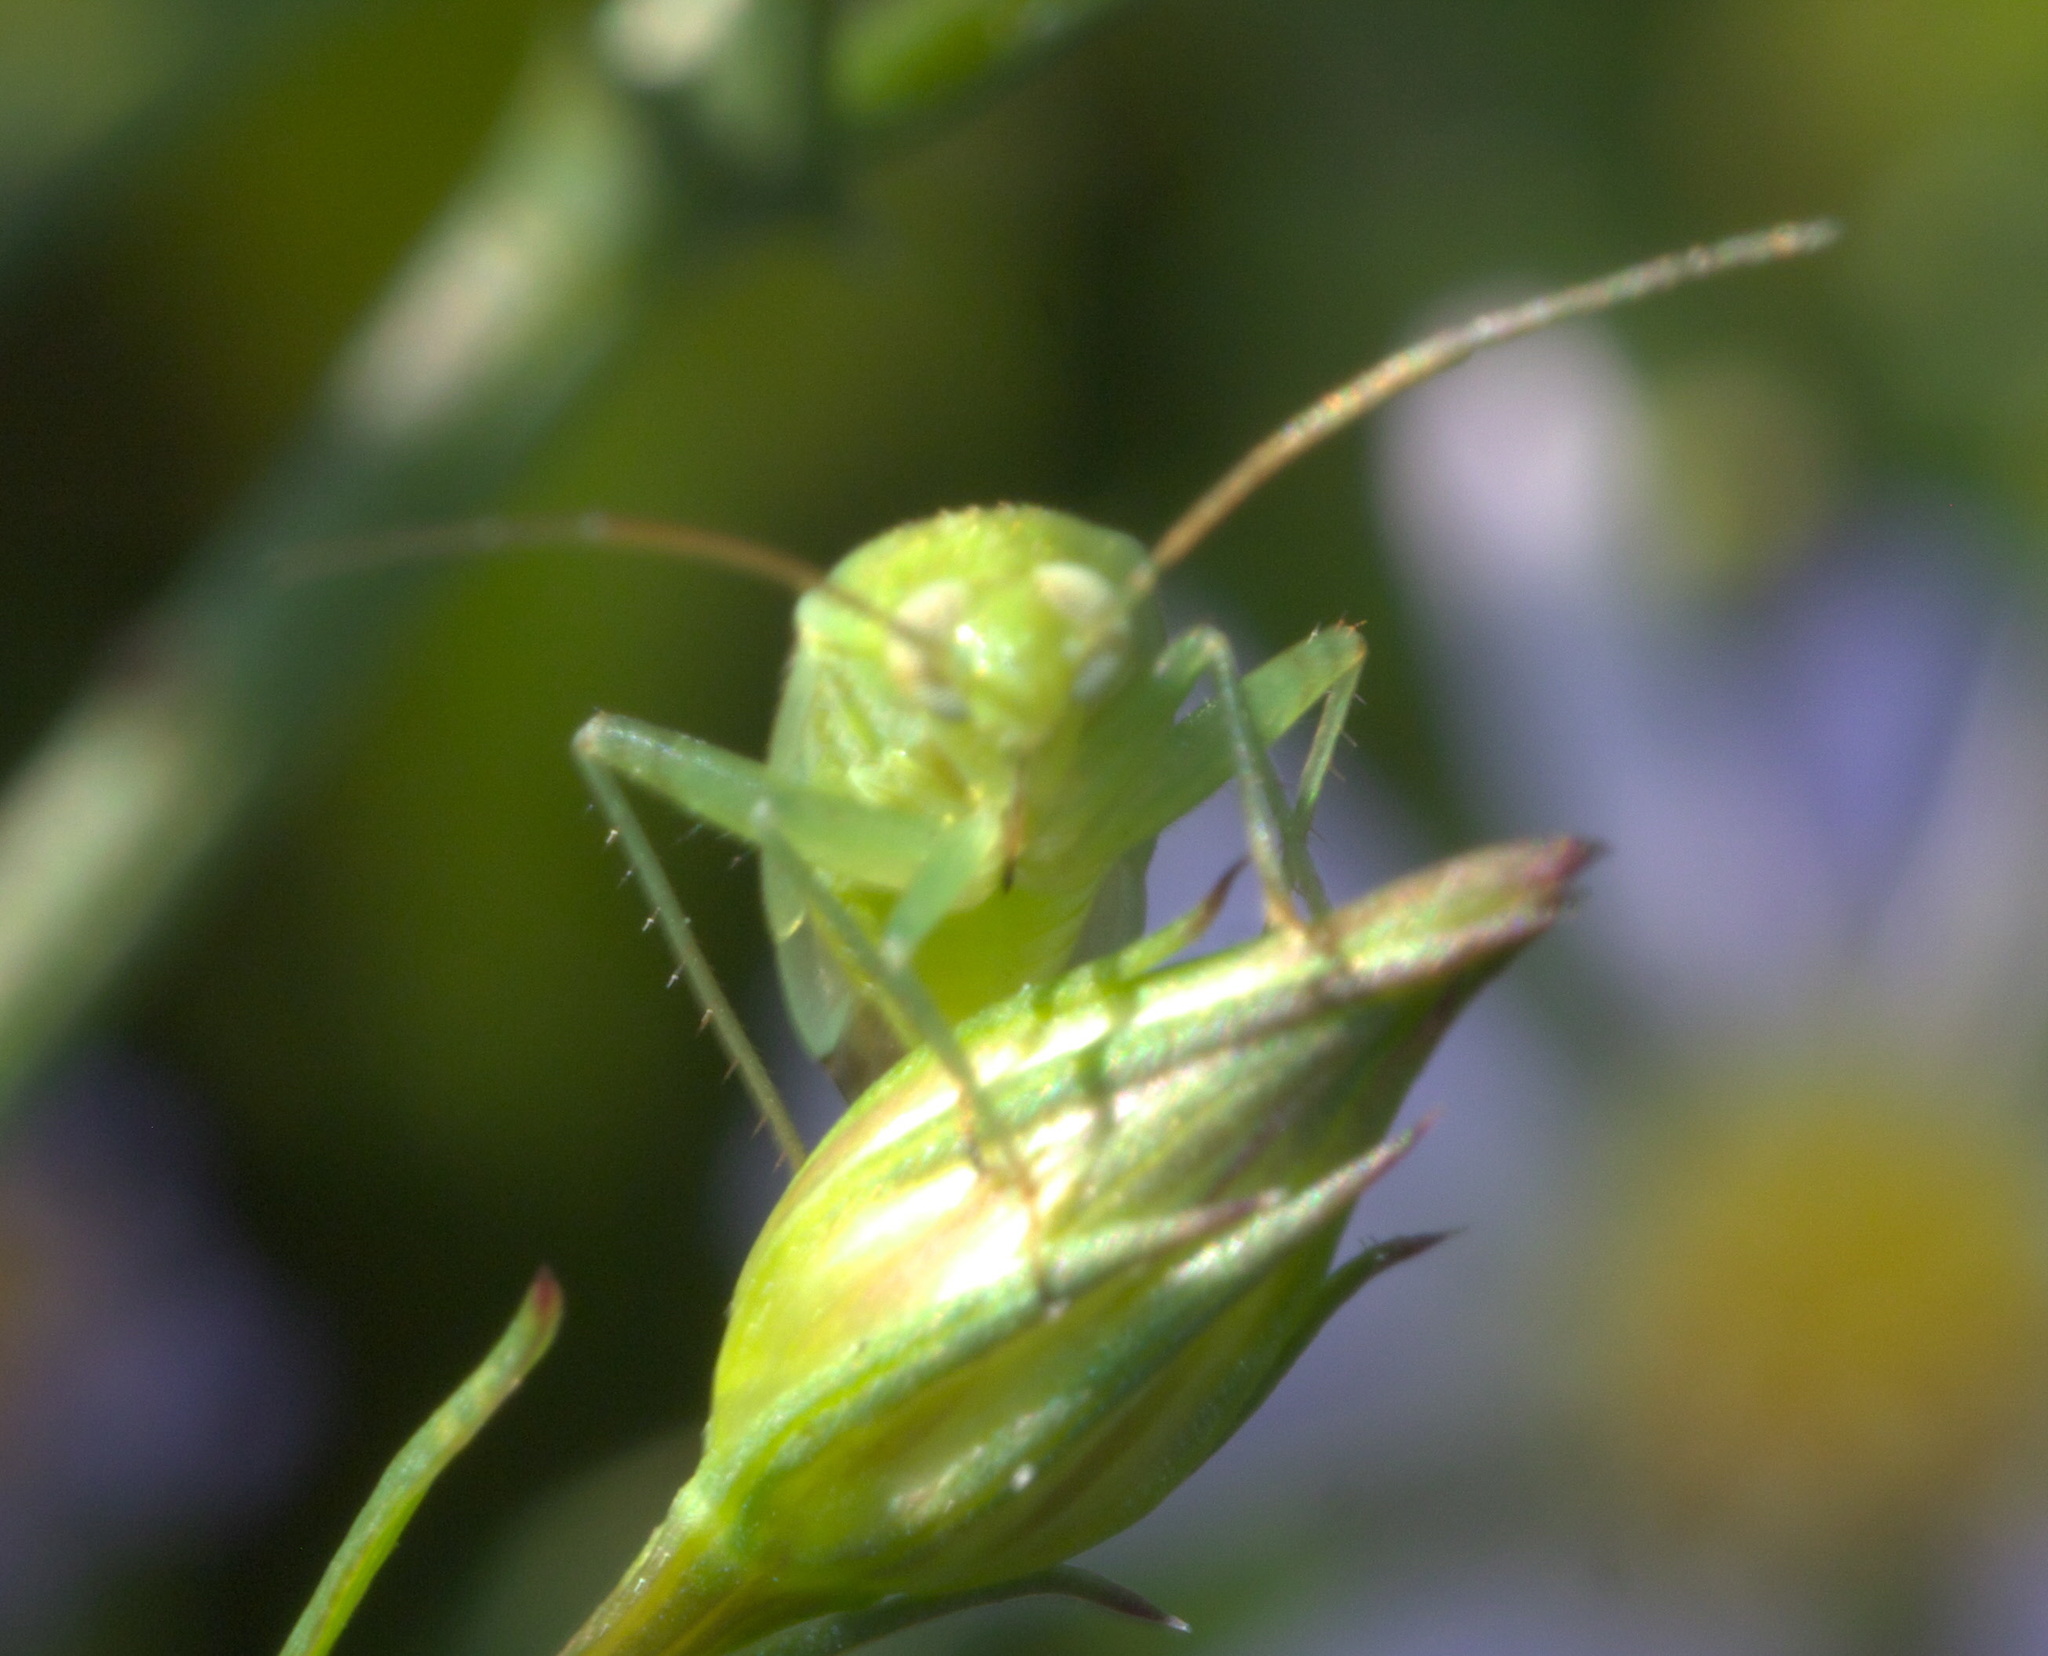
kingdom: Animalia
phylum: Arthropoda
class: Insecta
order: Hemiptera
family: Miridae
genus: Taylorilygus
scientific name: Taylorilygus apicalis
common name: Plant bug
